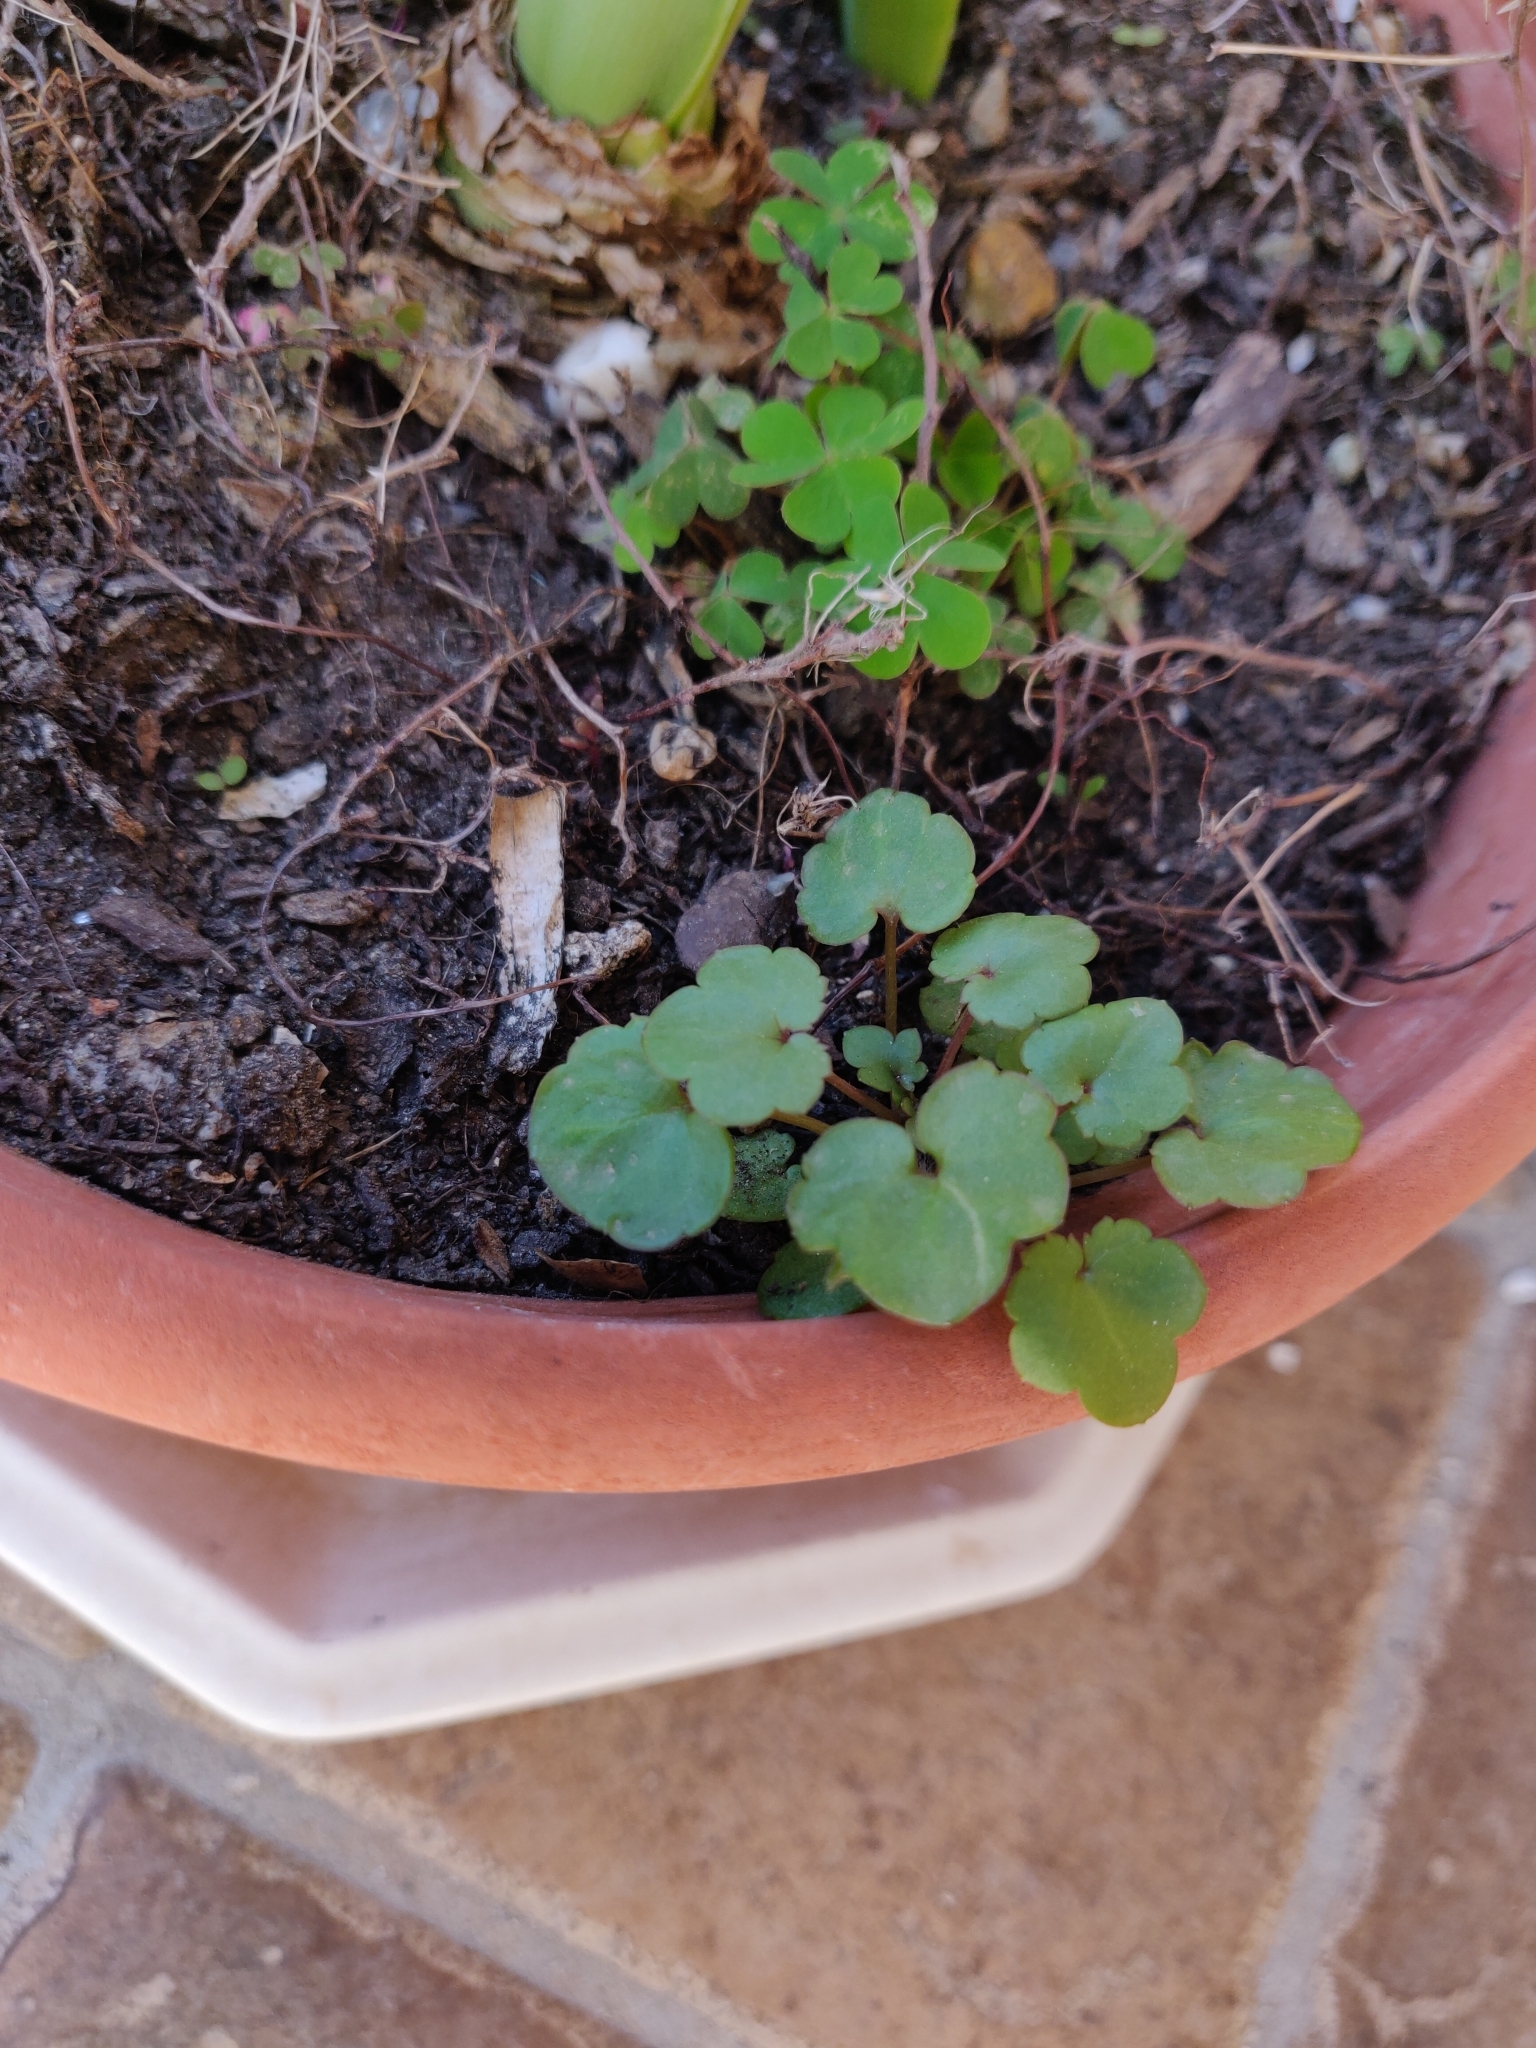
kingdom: Plantae
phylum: Tracheophyta
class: Magnoliopsida
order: Lamiales
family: Plantaginaceae
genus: Cymbalaria
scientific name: Cymbalaria muralis
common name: Ivy-leaved toadflax
